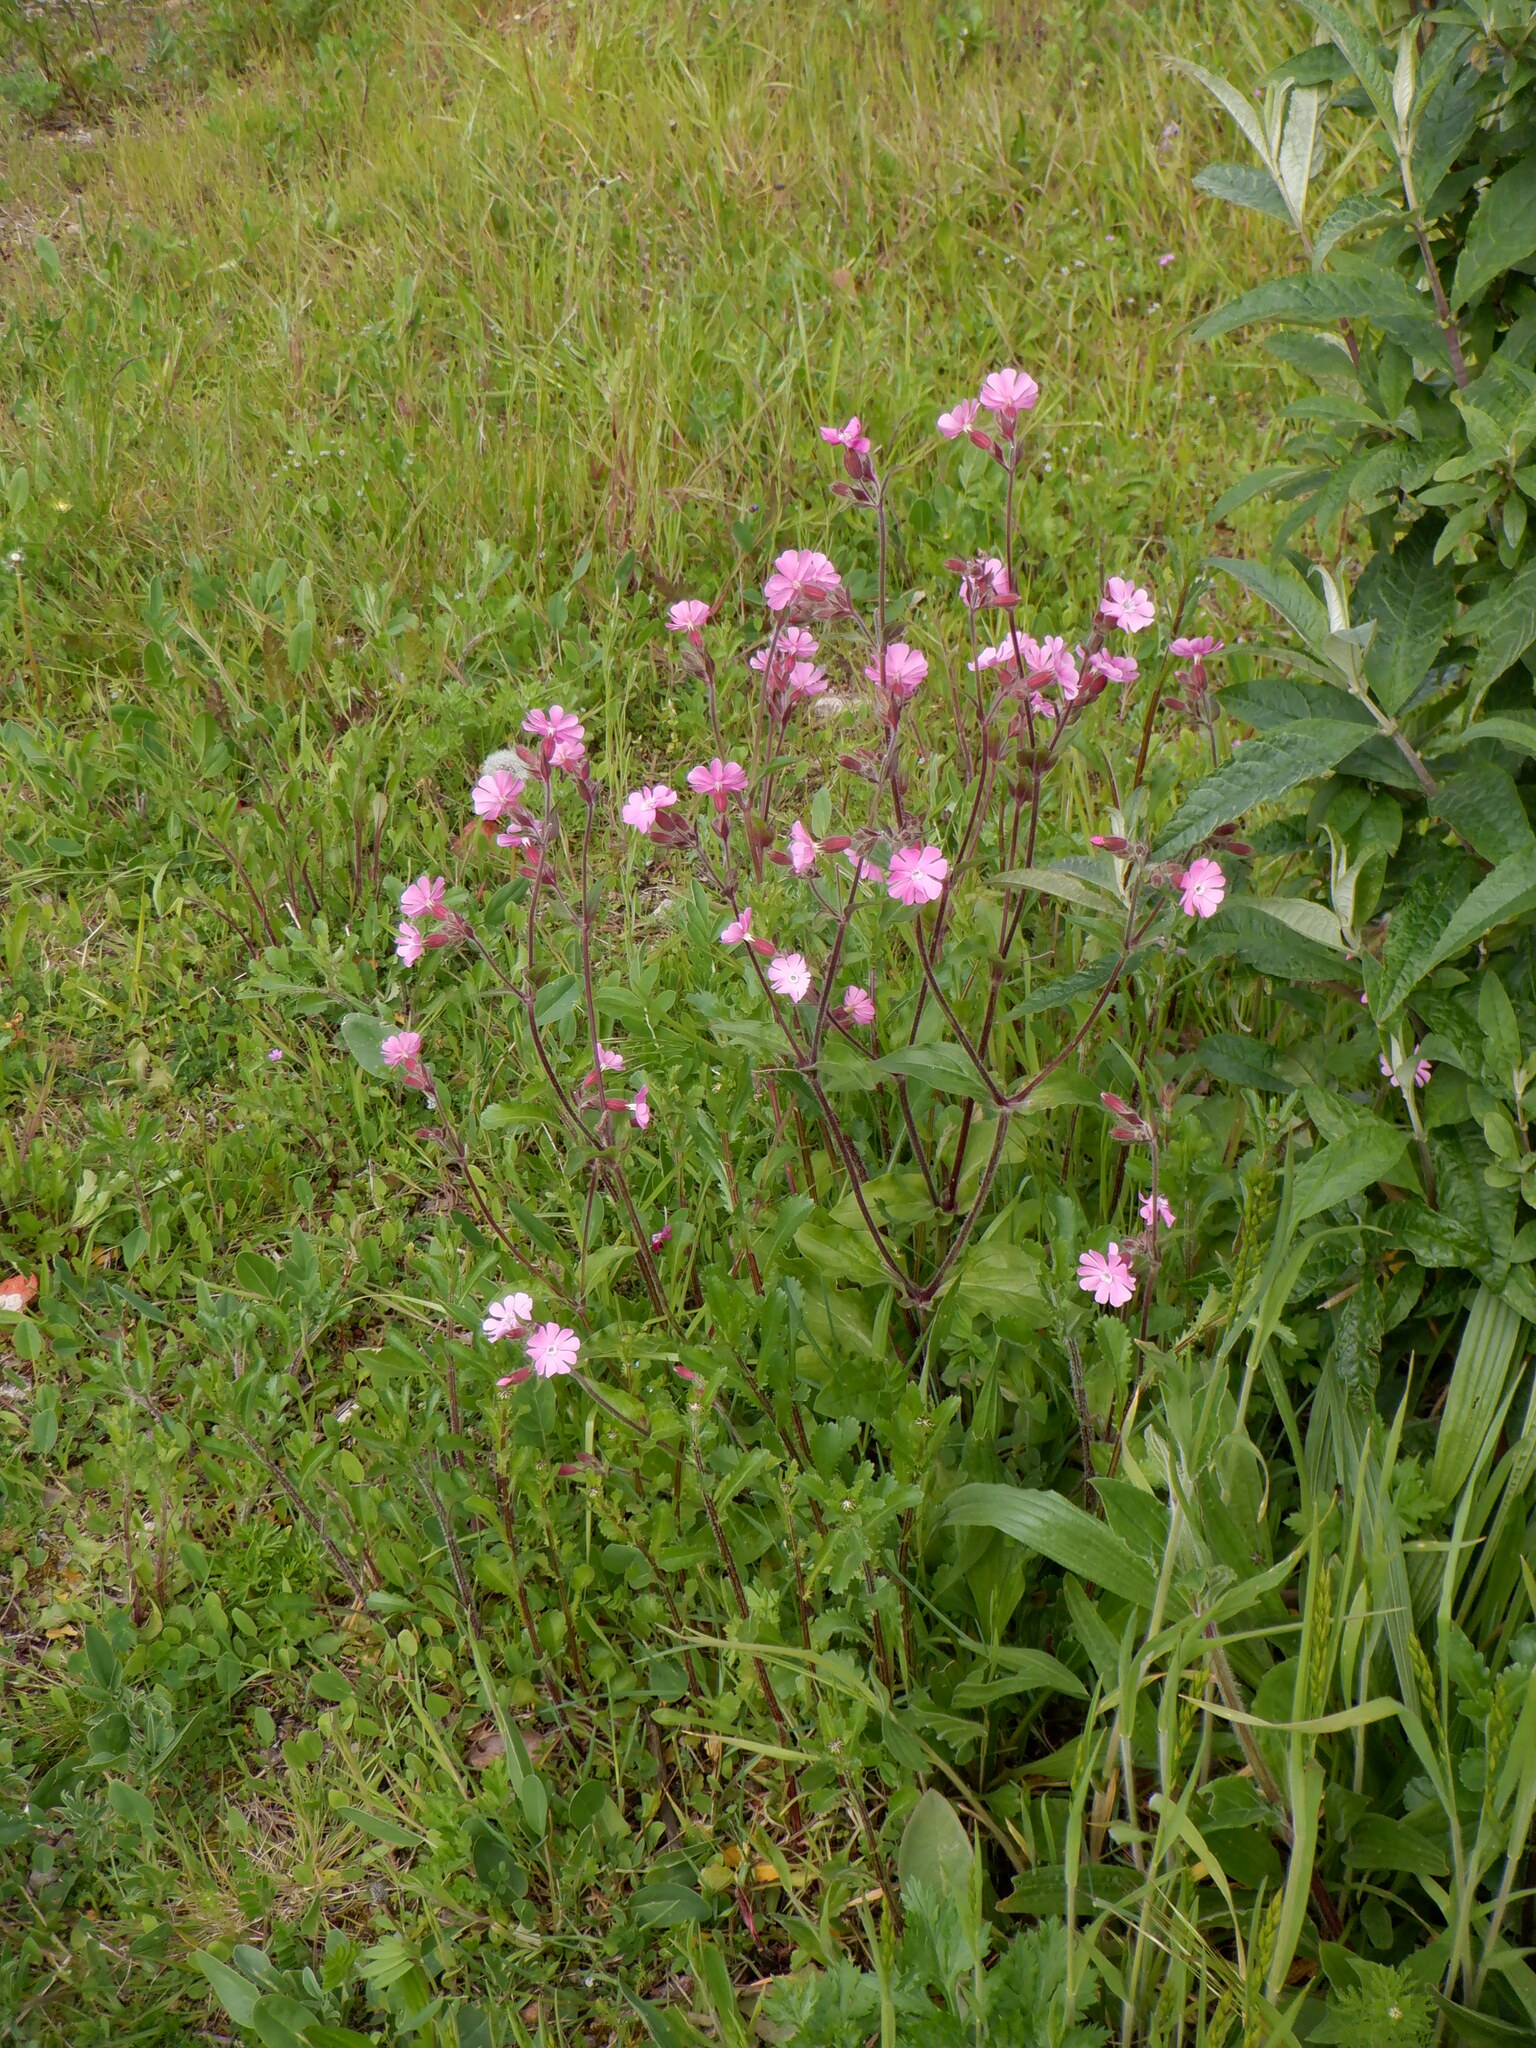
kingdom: Plantae
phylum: Tracheophyta
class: Magnoliopsida
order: Caryophyllales
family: Caryophyllaceae
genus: Silene
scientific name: Silene dioica
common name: Red campion
